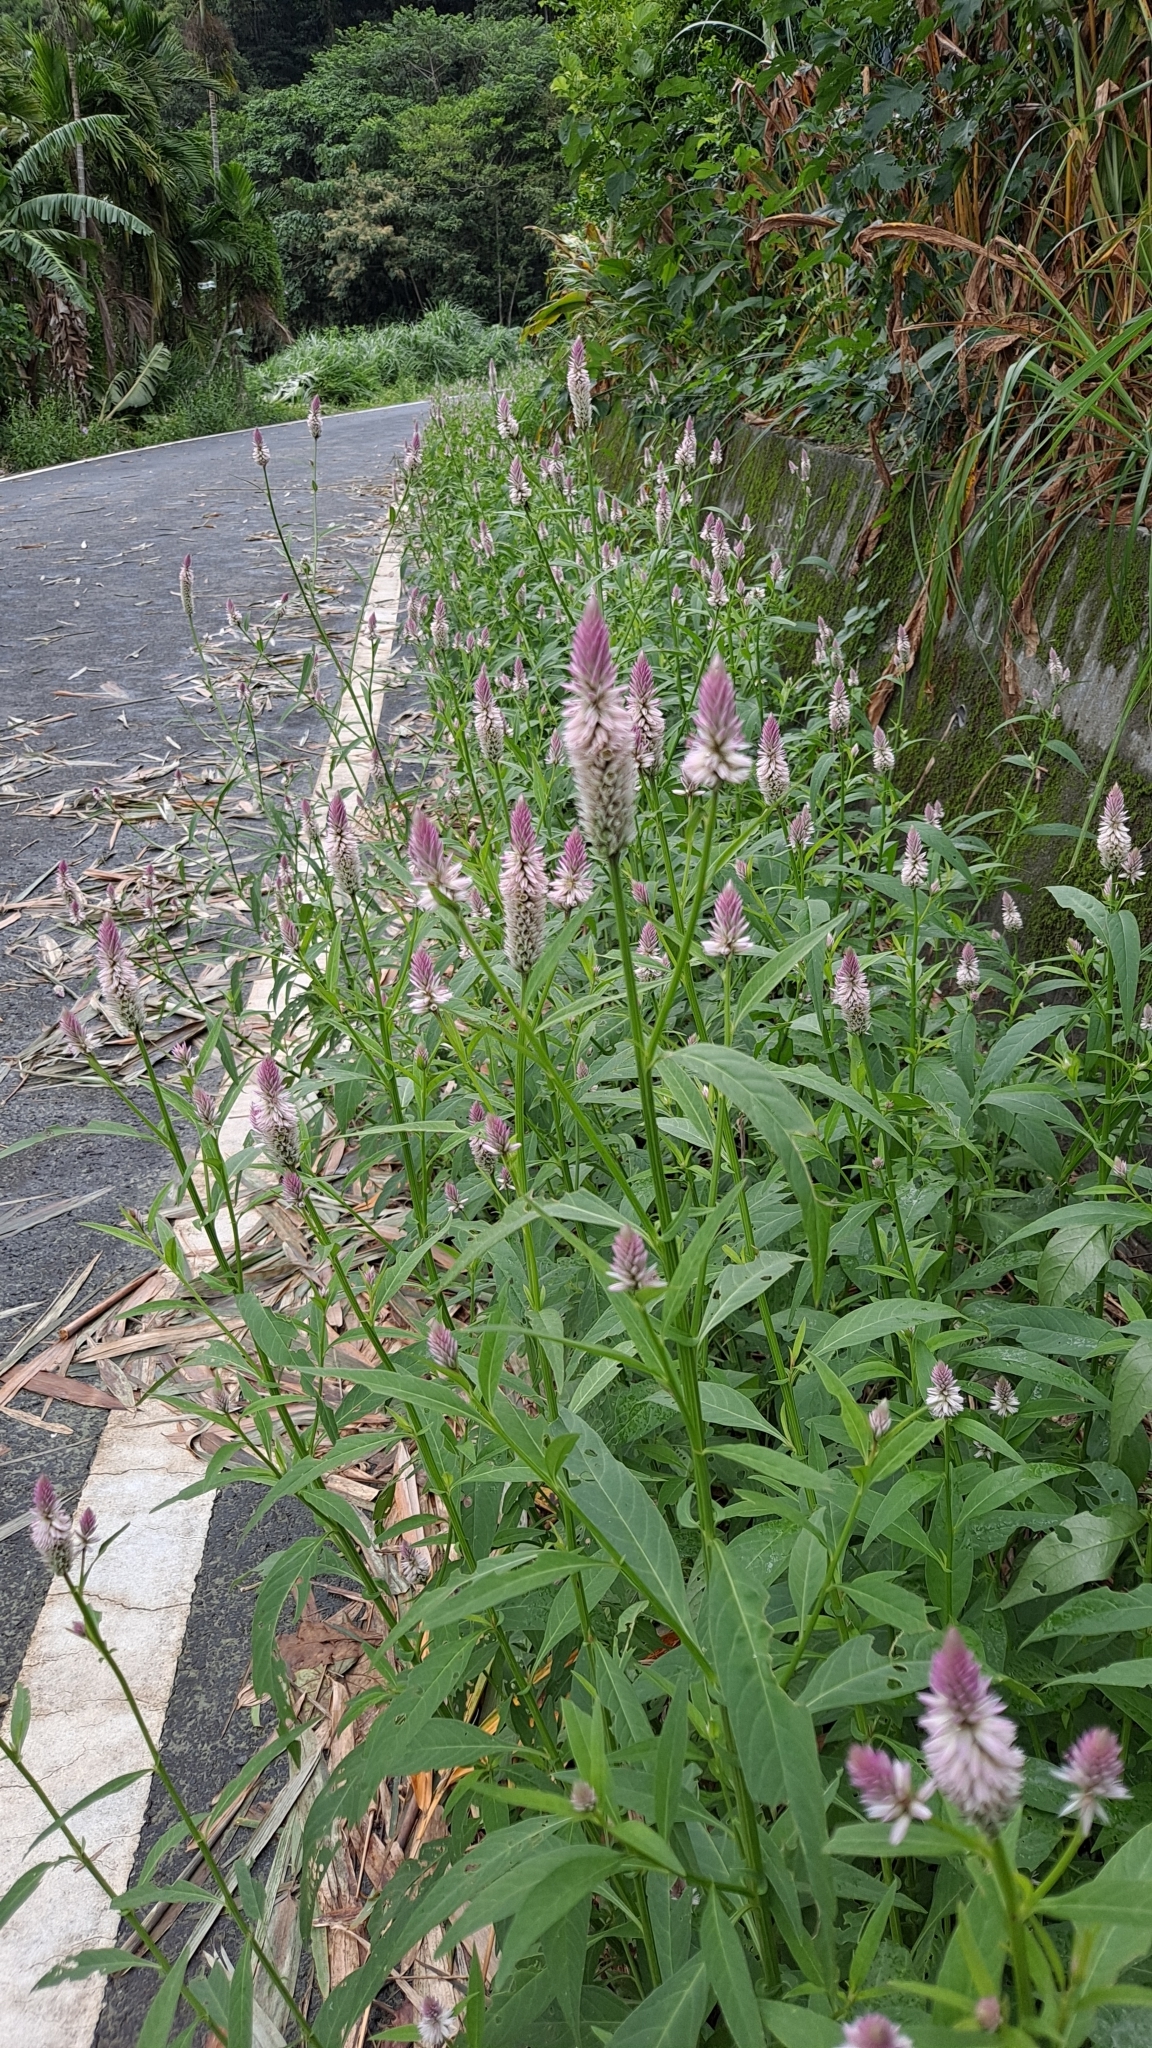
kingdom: Plantae
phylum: Tracheophyta
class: Magnoliopsida
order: Caryophyllales
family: Amaranthaceae
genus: Celosia
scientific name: Celosia argentea
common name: Feather cockscomb
